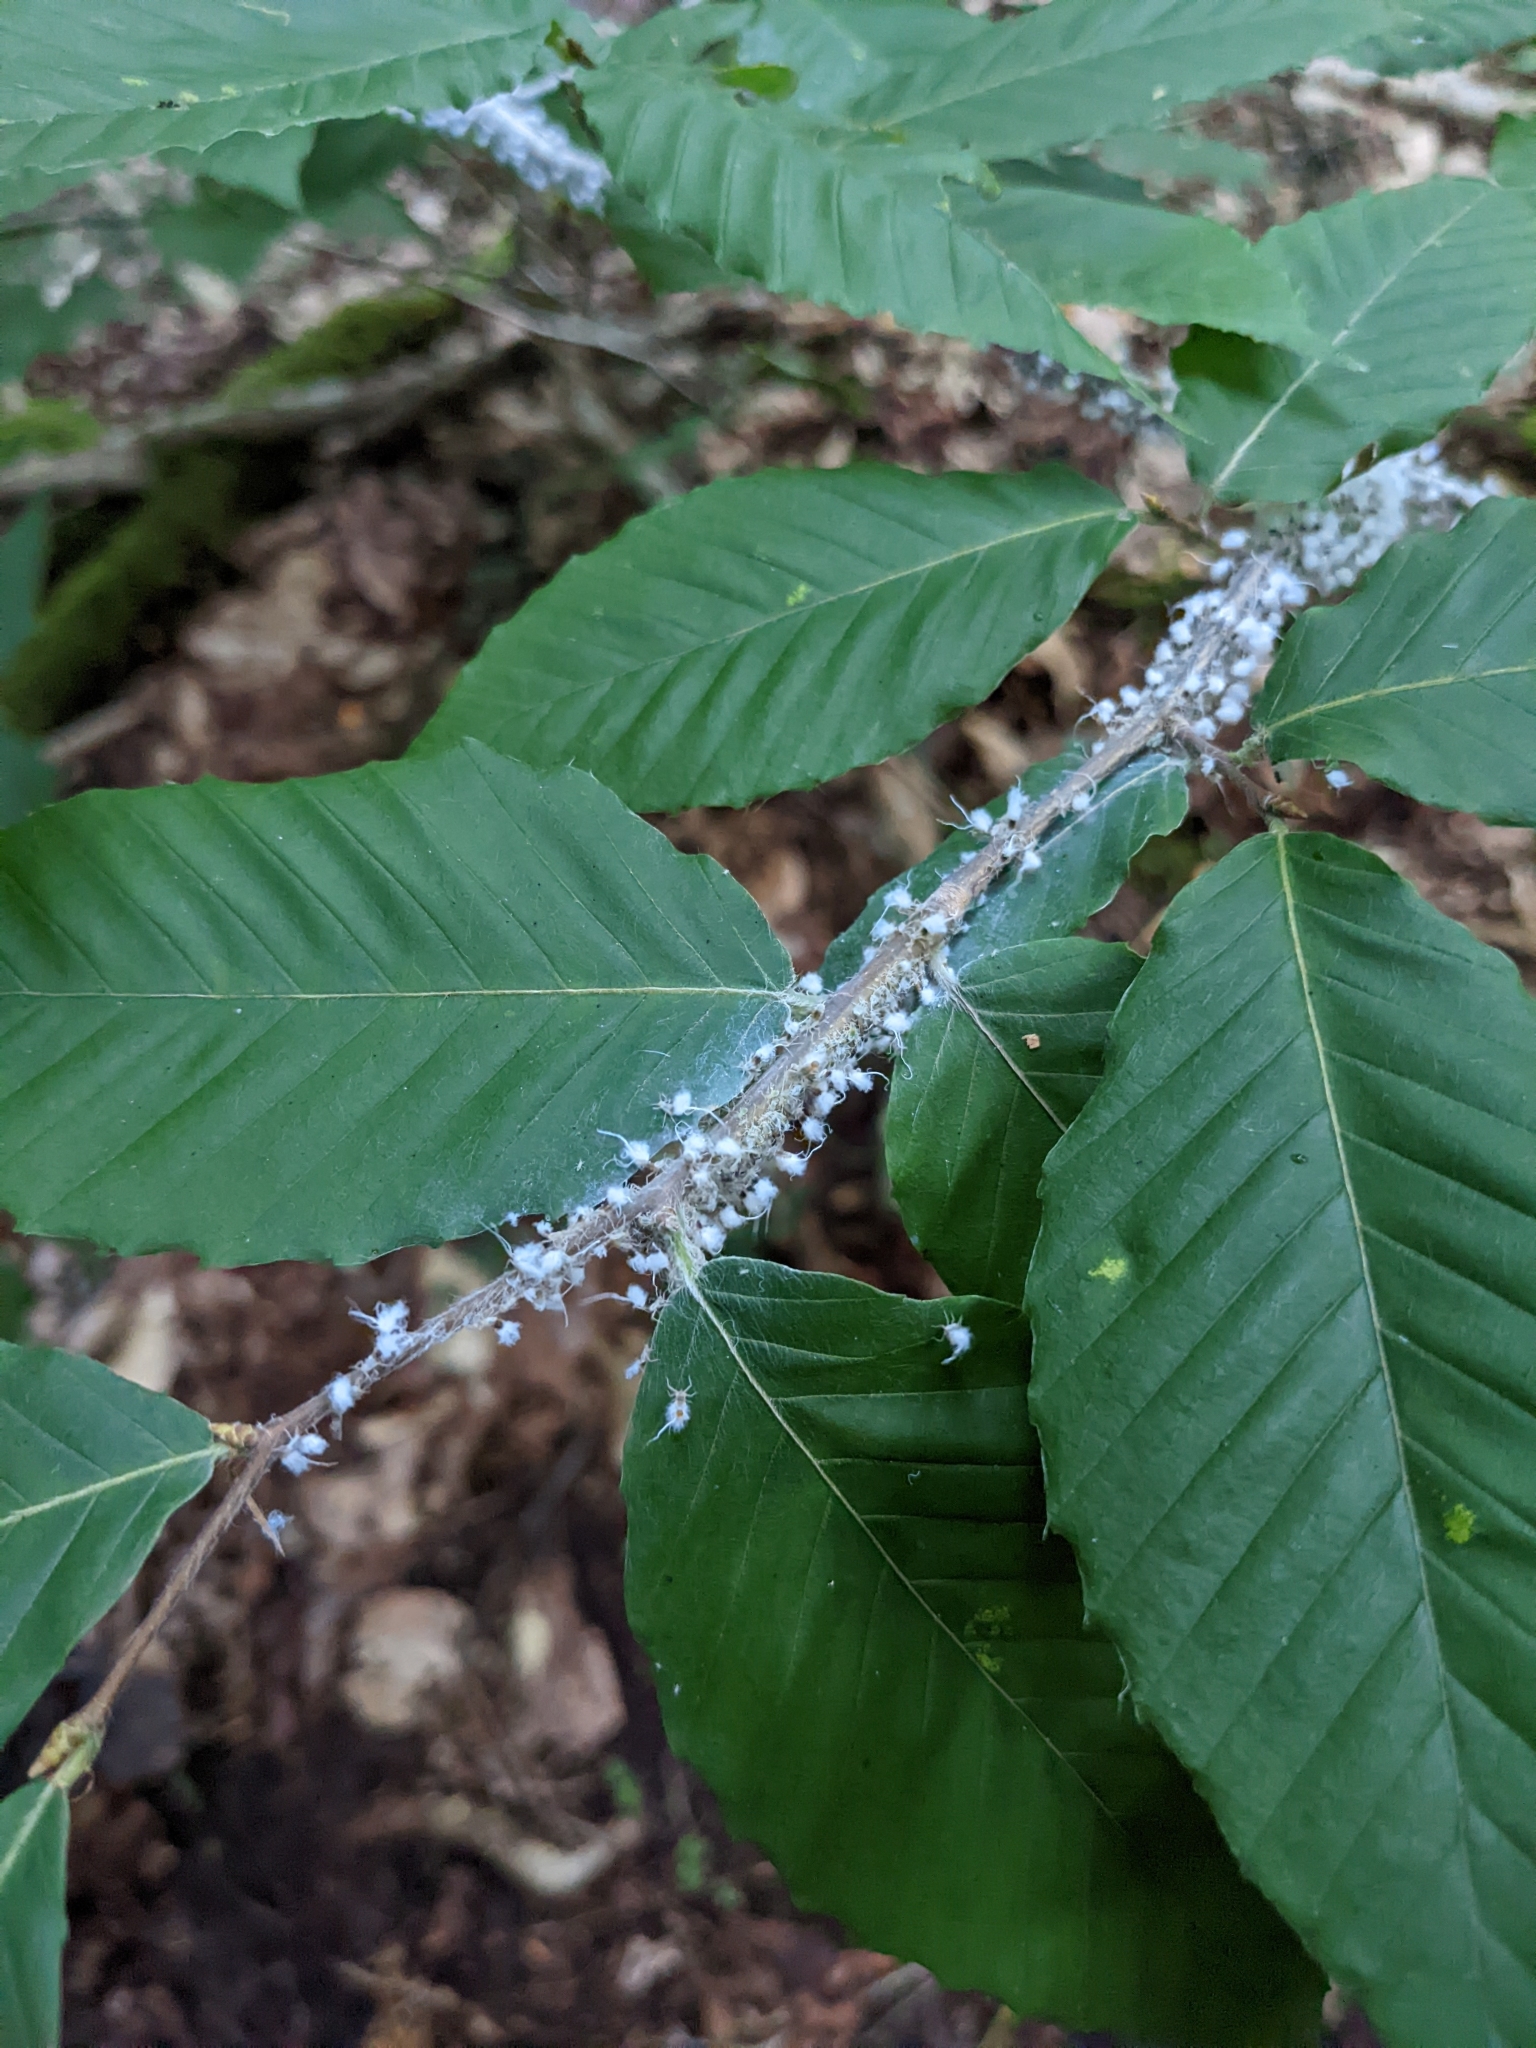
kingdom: Animalia
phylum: Arthropoda
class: Insecta
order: Hemiptera
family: Aphididae
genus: Grylloprociphilus
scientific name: Grylloprociphilus imbricator
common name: Beech blight aphid
